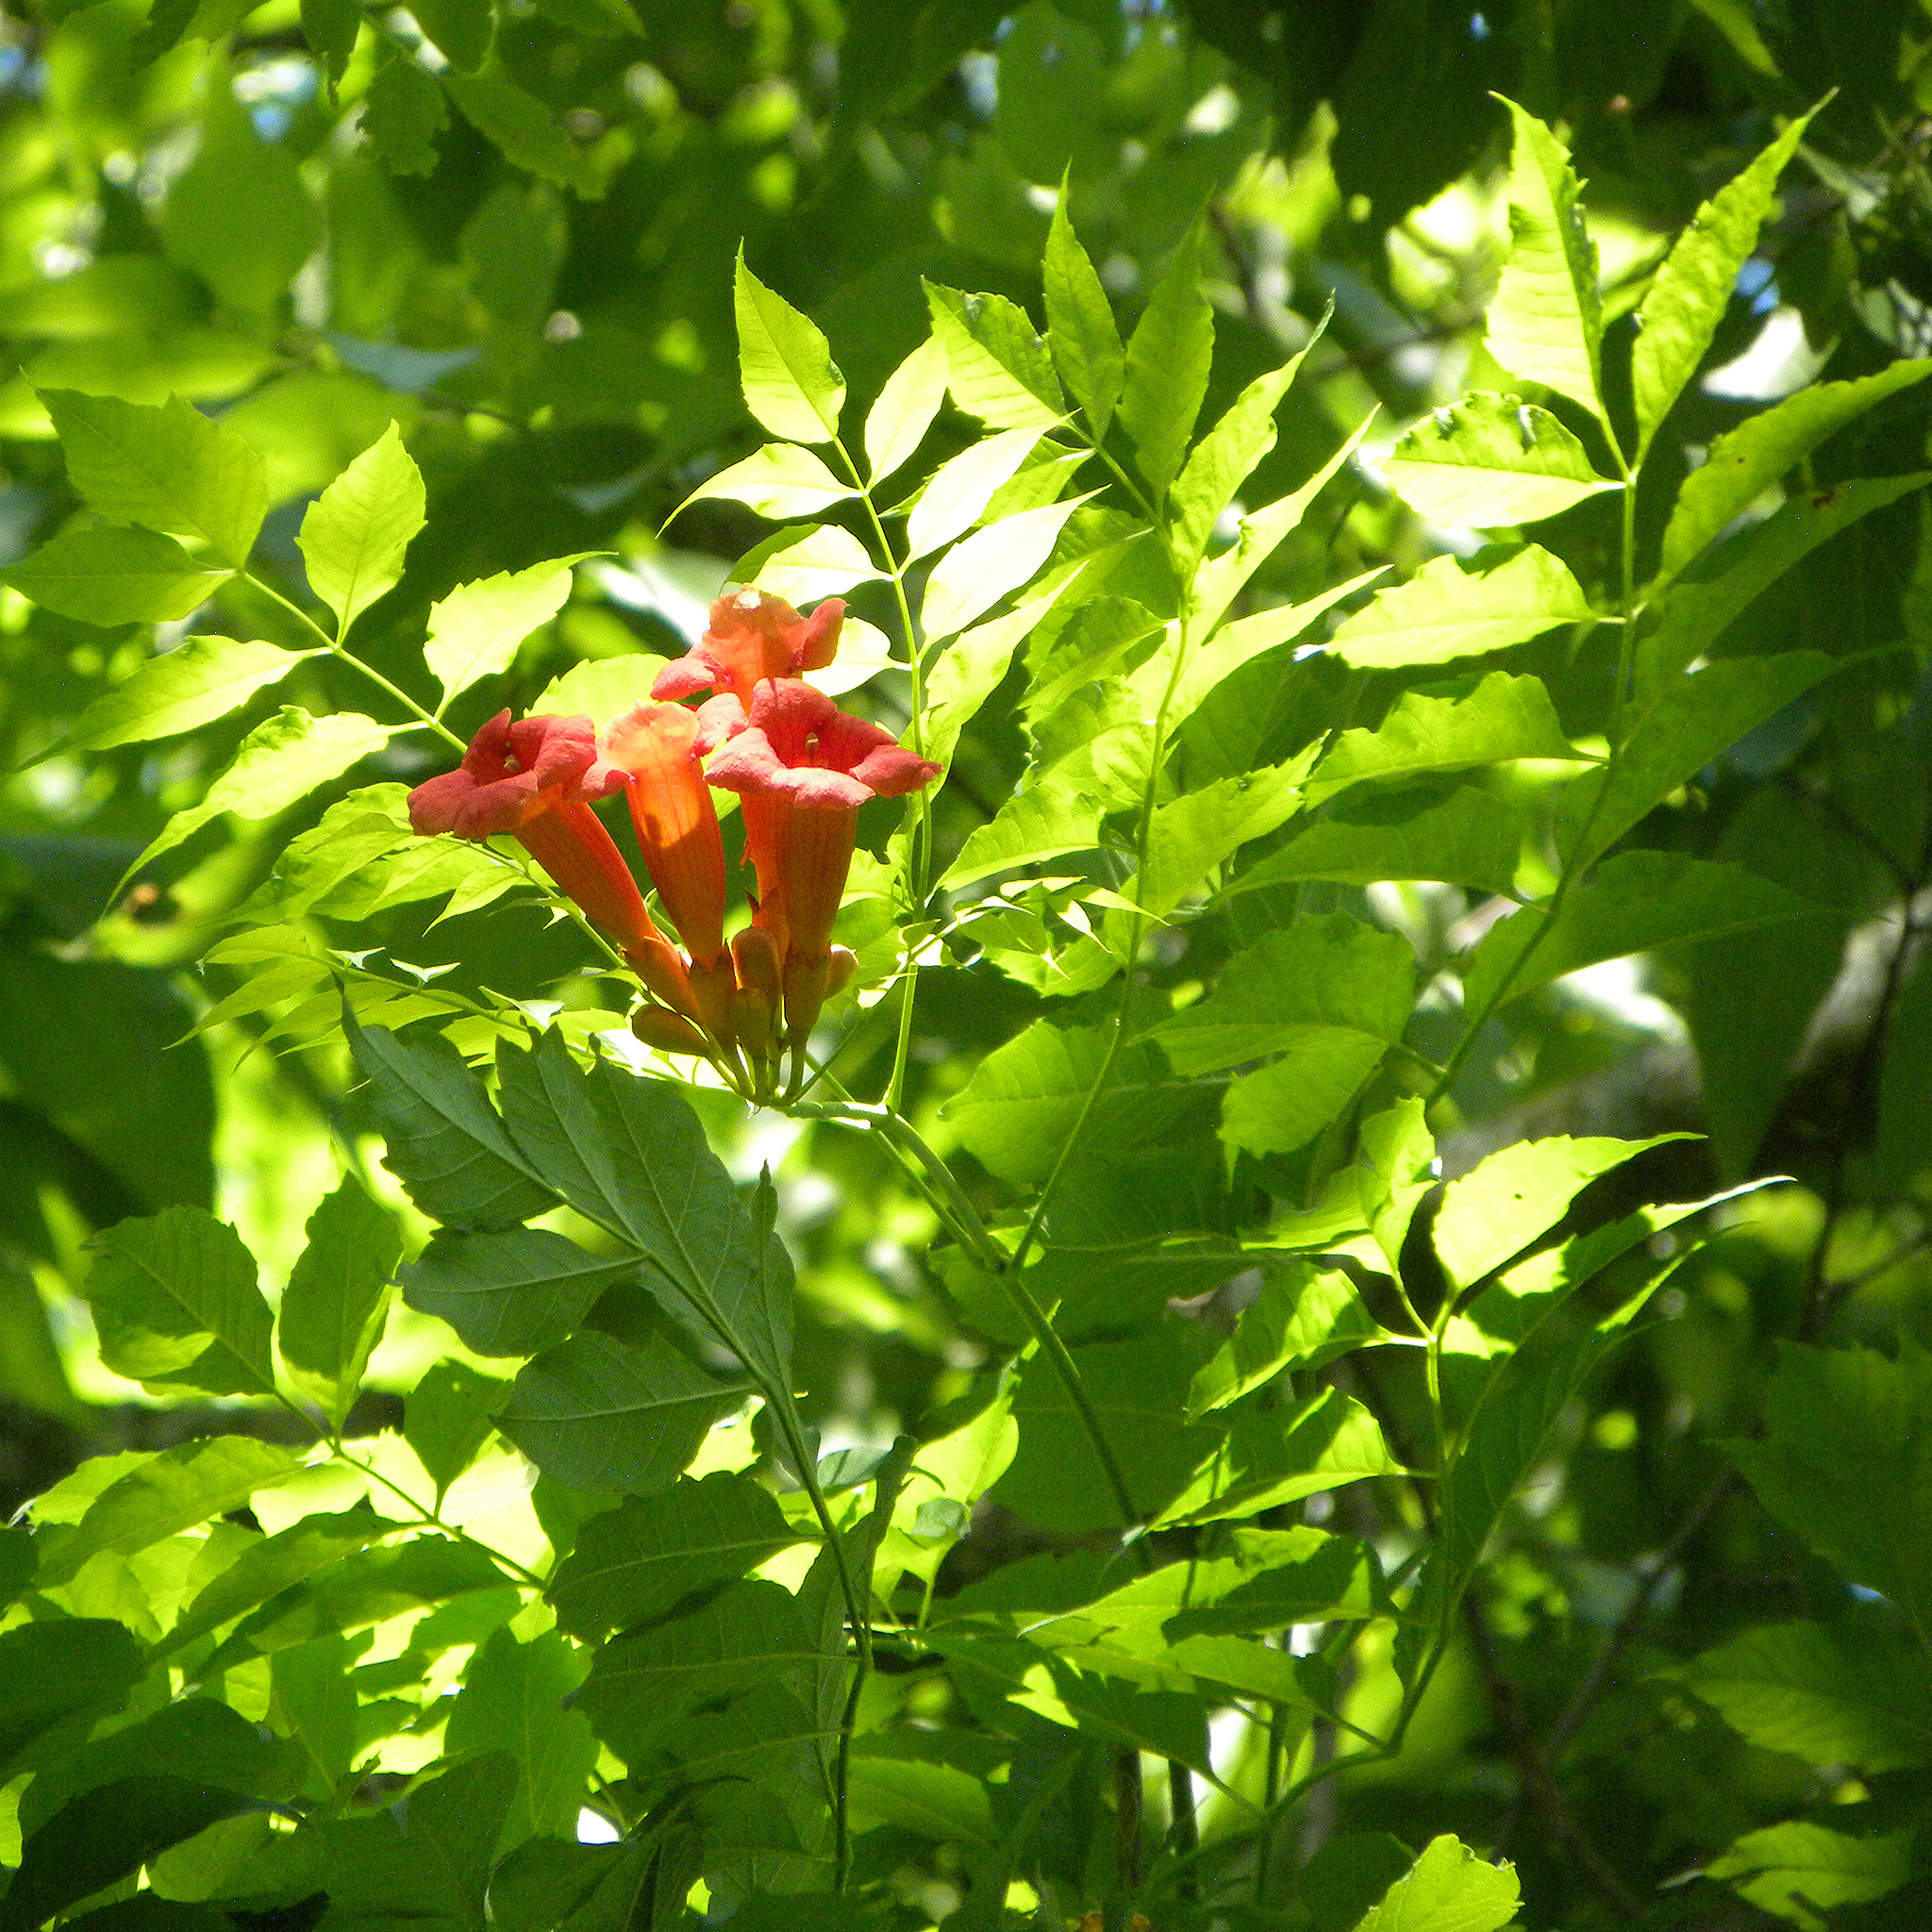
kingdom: Plantae
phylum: Tracheophyta
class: Magnoliopsida
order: Lamiales
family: Bignoniaceae
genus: Campsis
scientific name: Campsis radicans
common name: Trumpet-creeper
